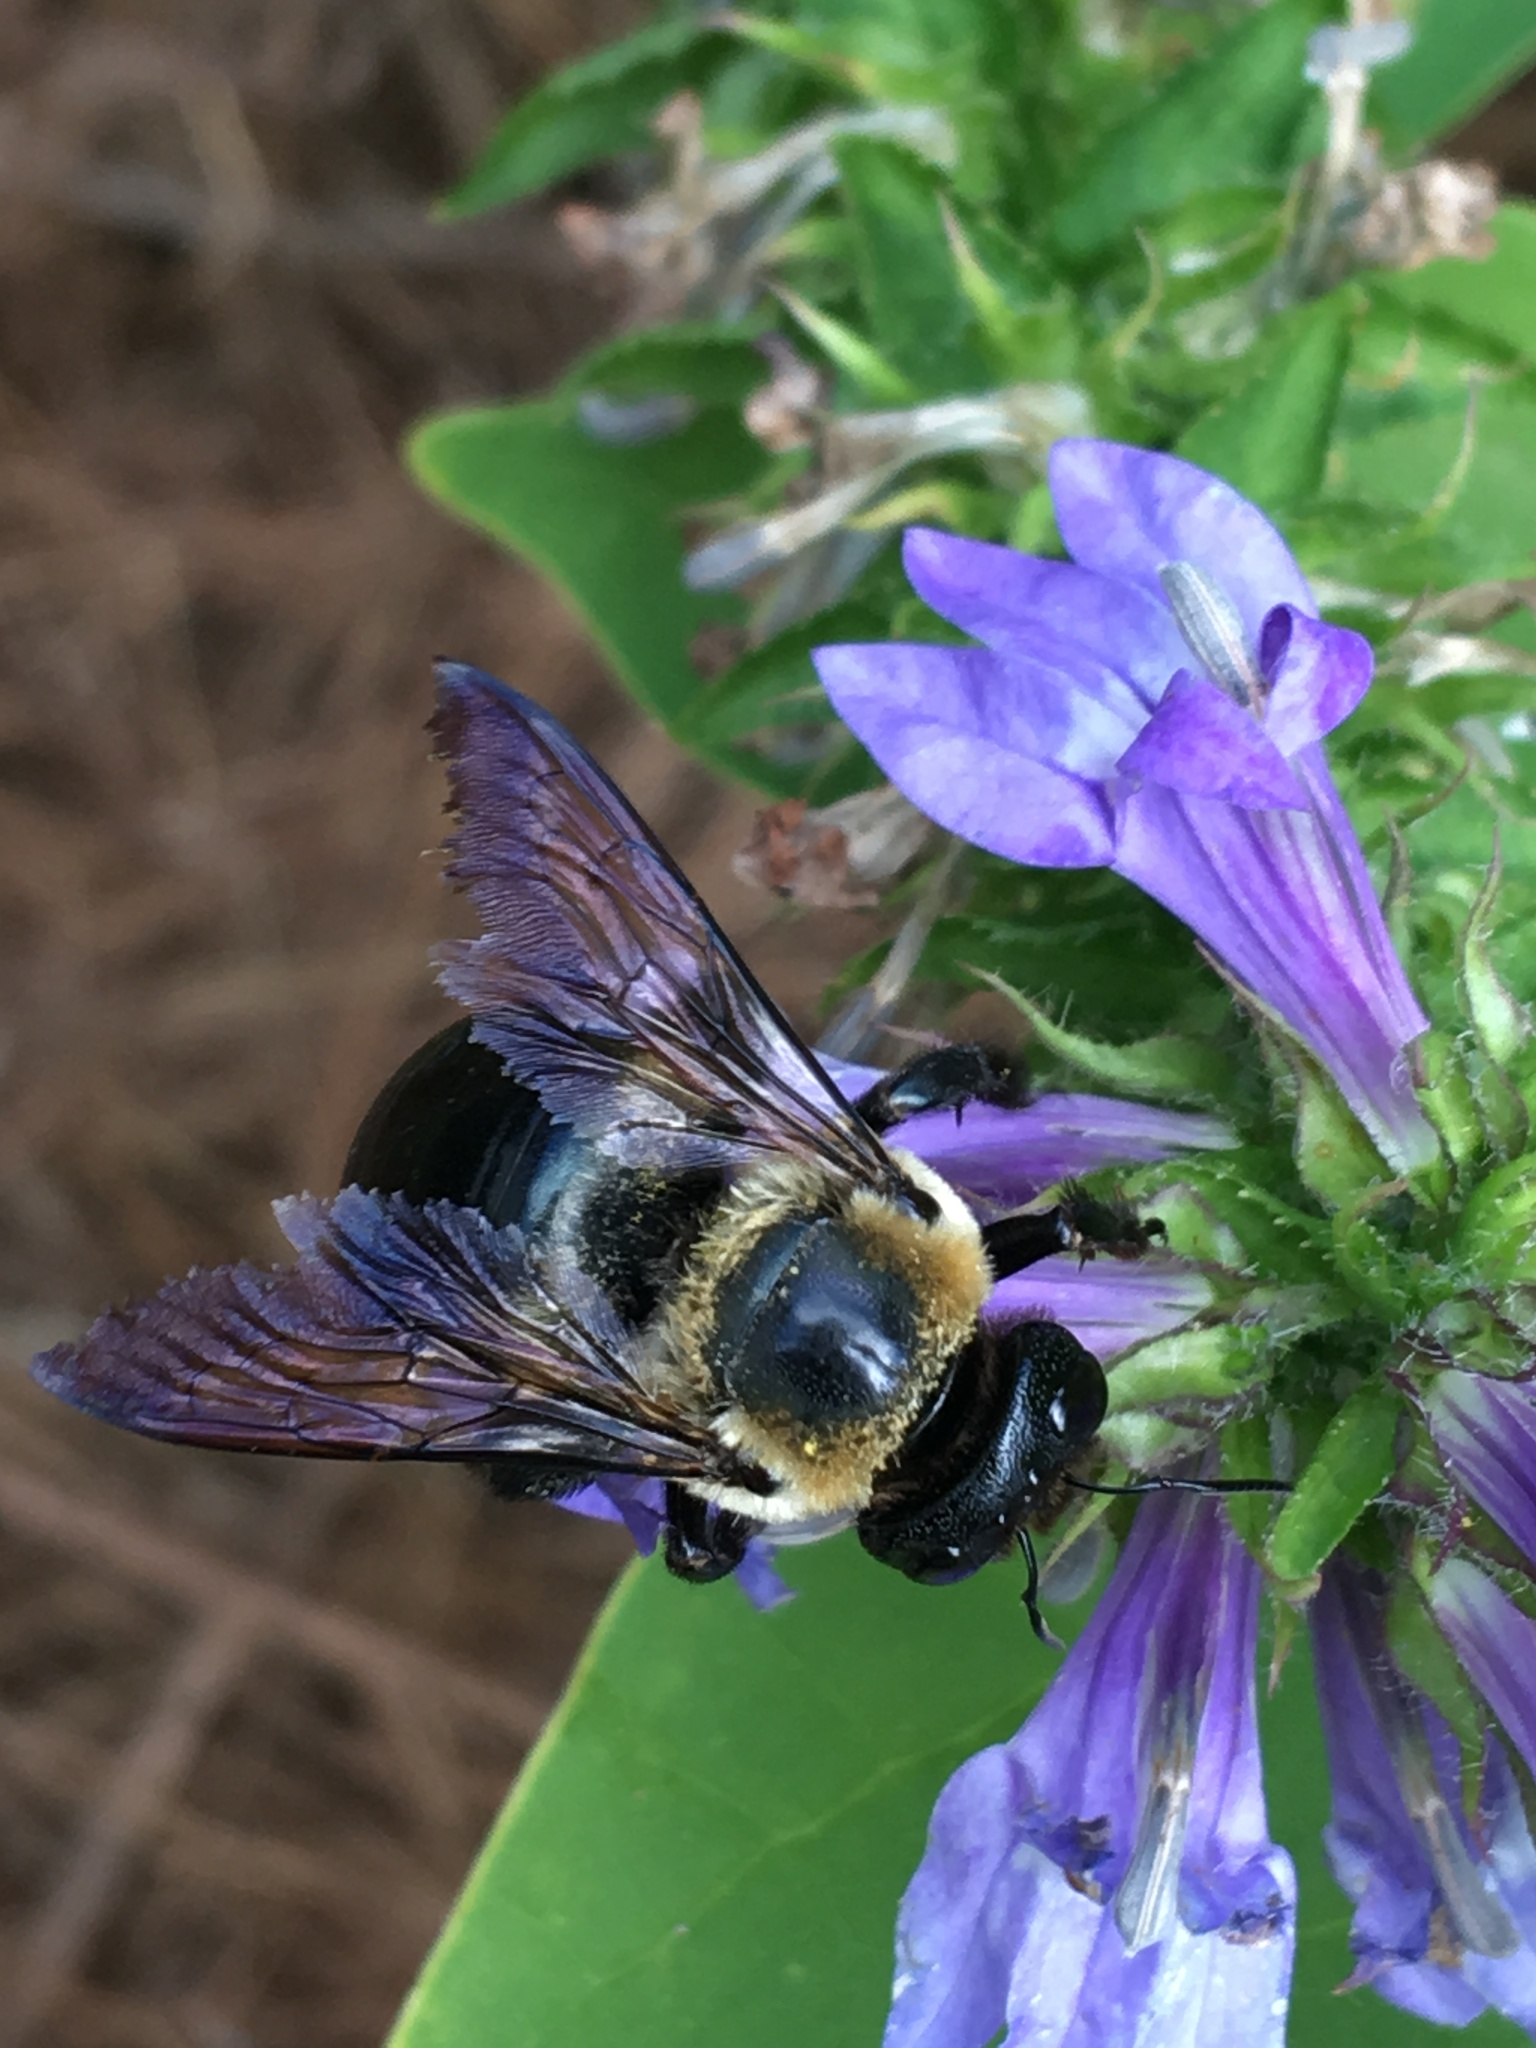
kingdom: Animalia
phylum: Arthropoda
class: Insecta
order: Hymenoptera
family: Apidae
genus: Xylocopa
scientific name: Xylocopa virginica
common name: Carpenter bee
